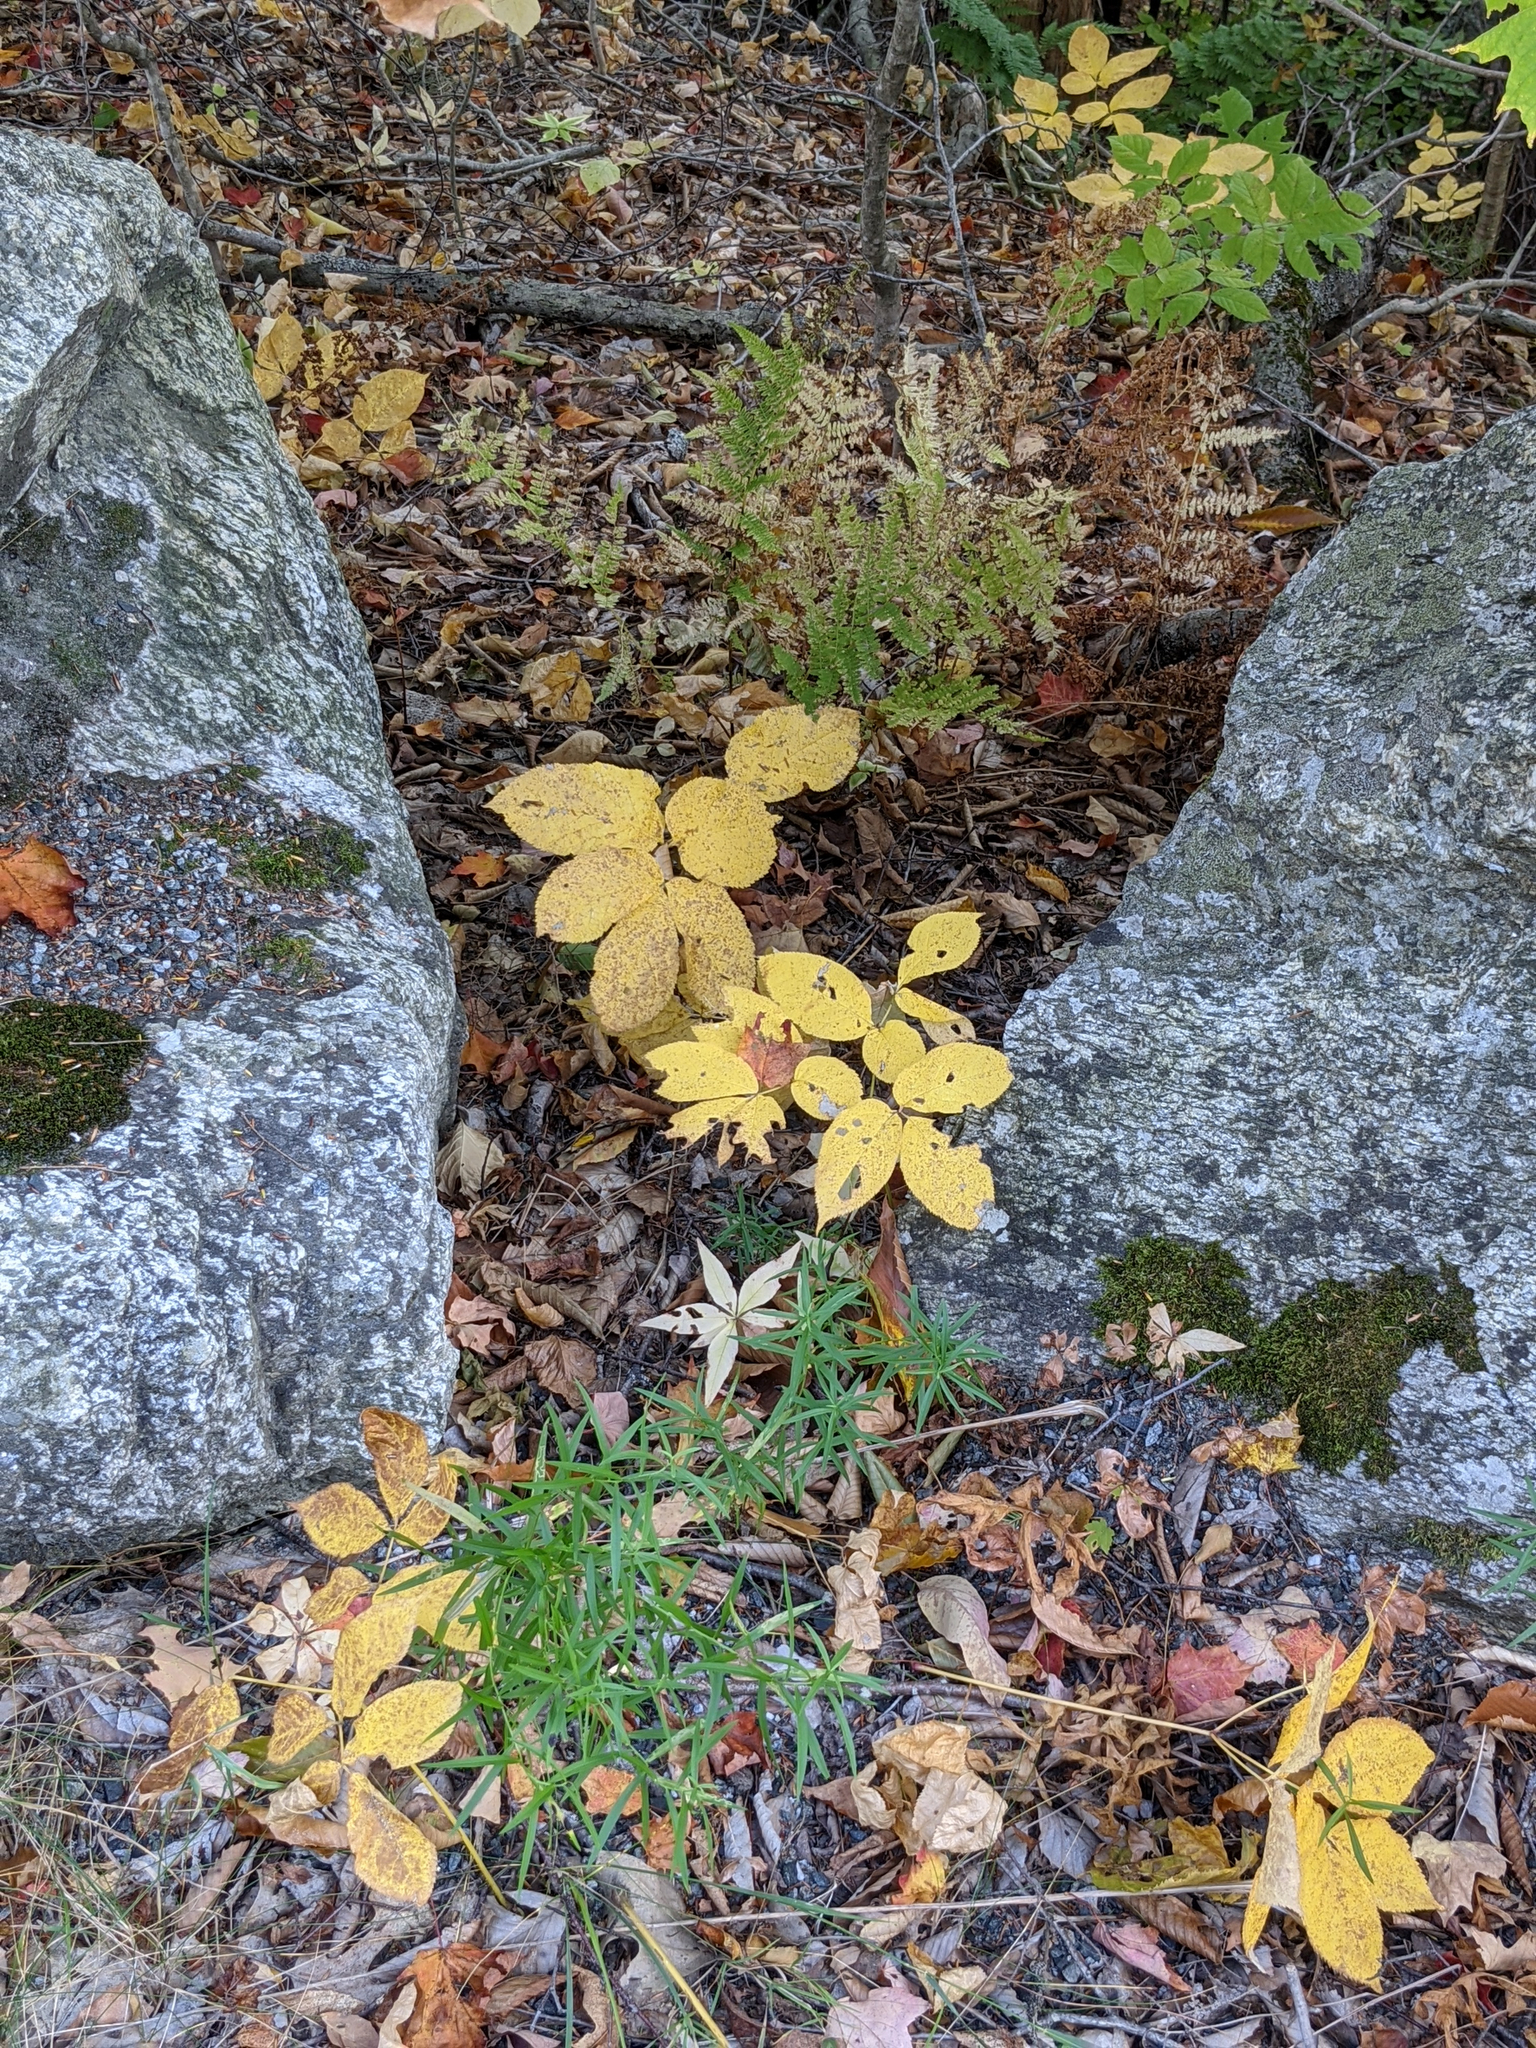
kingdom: Plantae
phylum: Tracheophyta
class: Magnoliopsida
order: Apiales
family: Araliaceae
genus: Aralia
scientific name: Aralia nudicaulis
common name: Wild sarsaparilla
